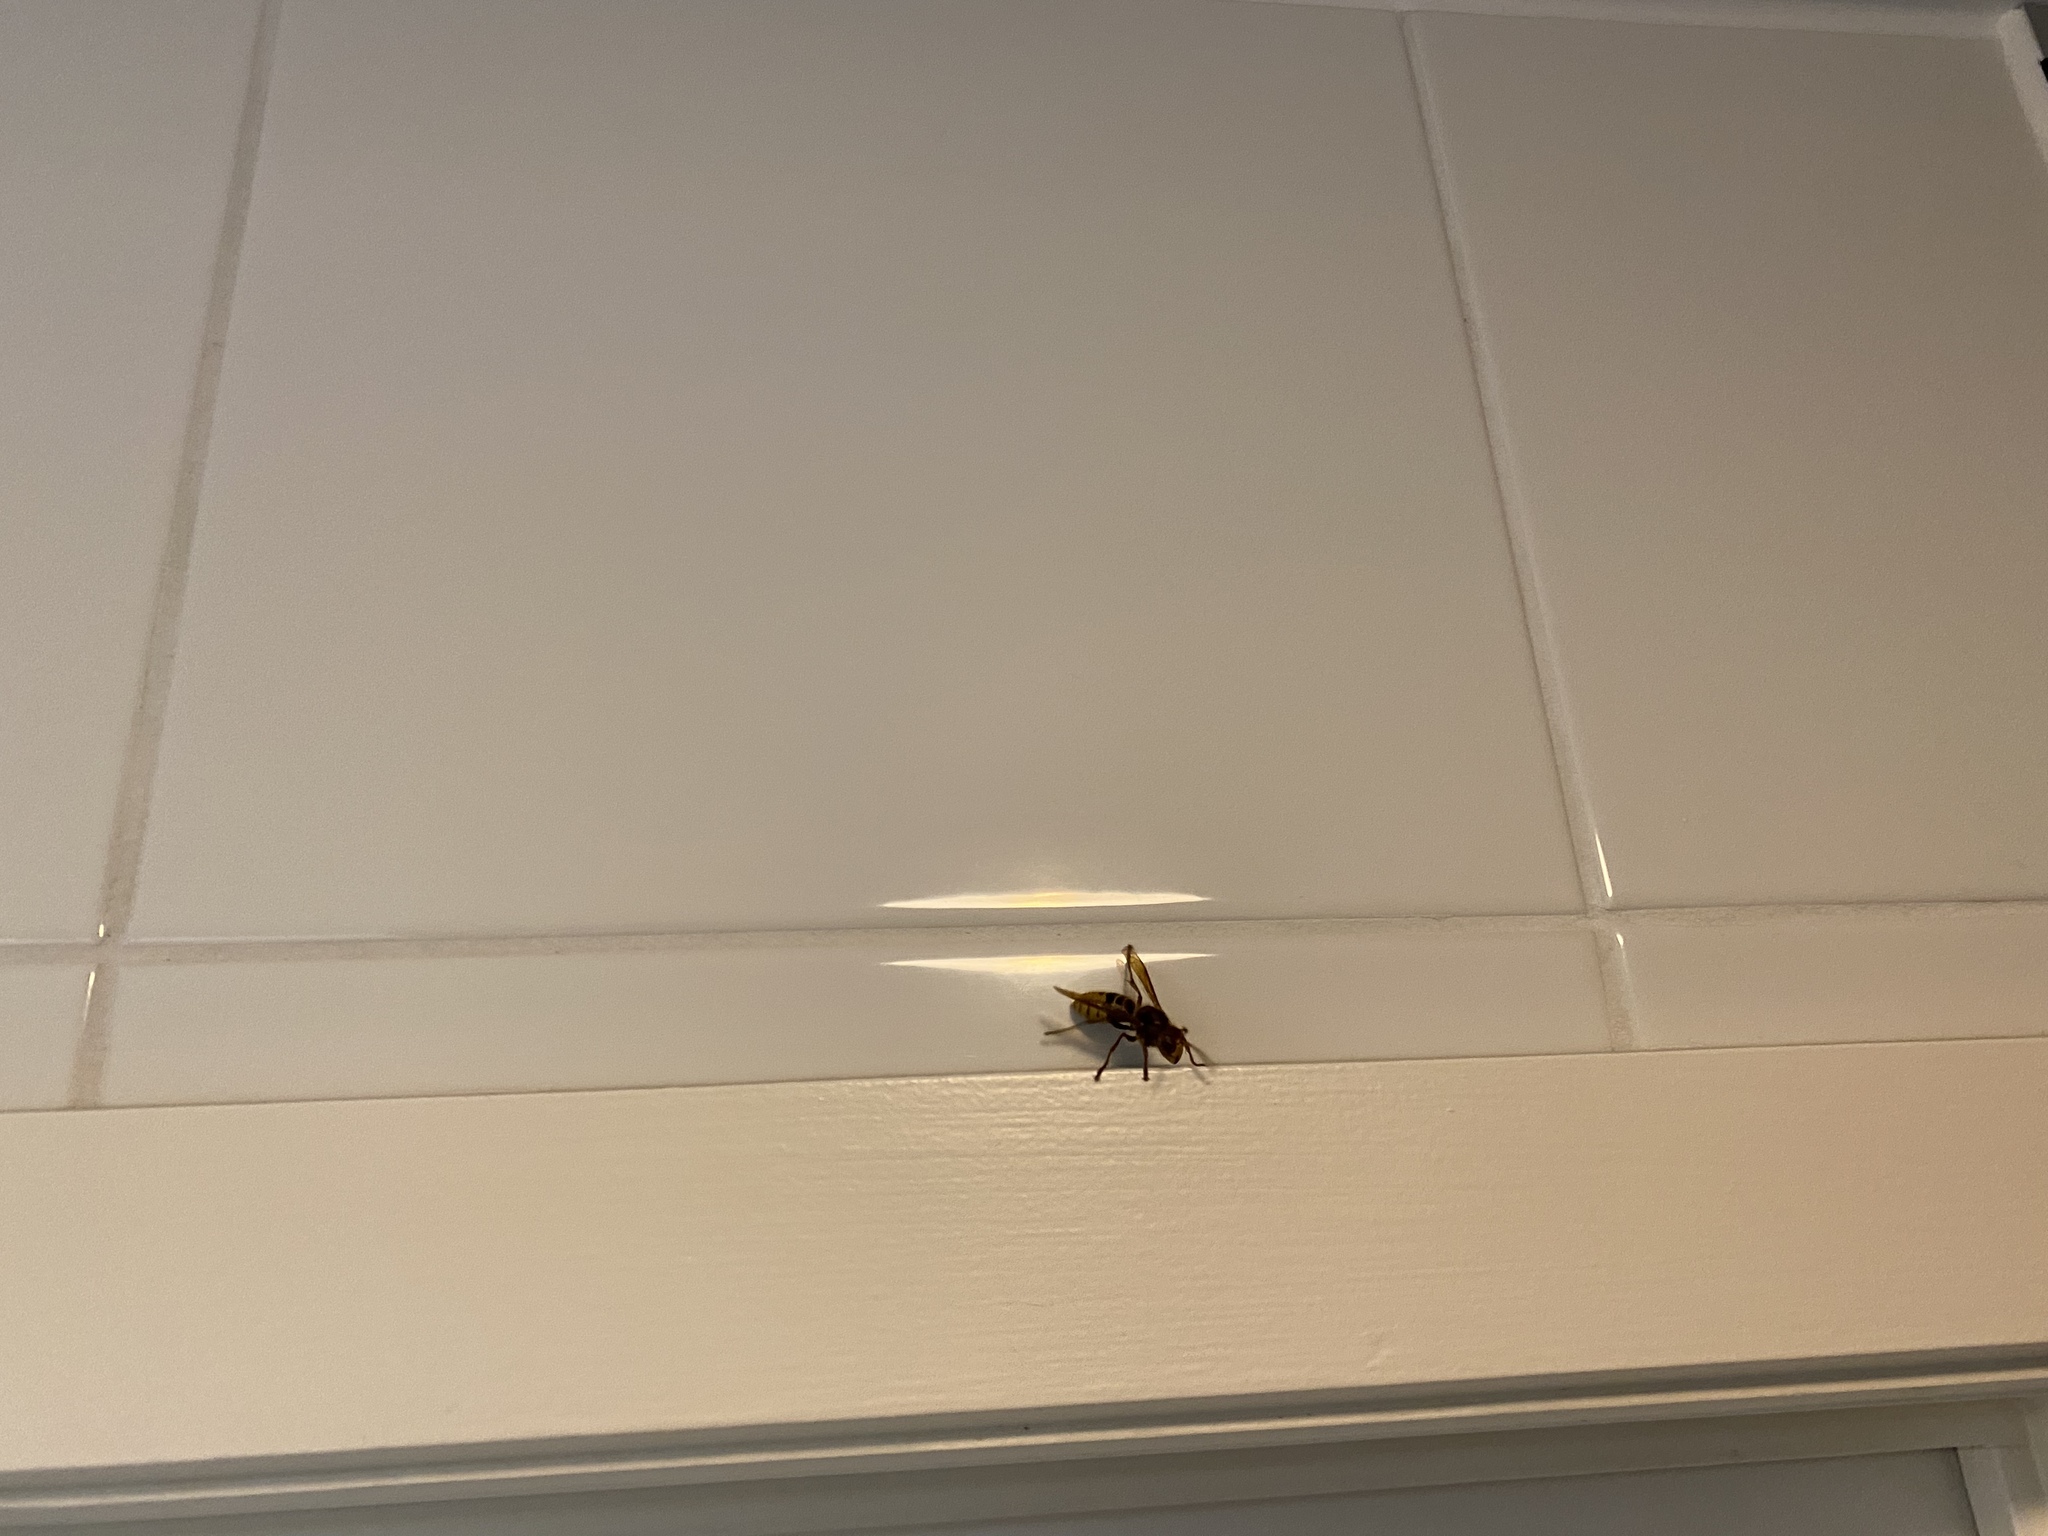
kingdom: Animalia
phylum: Arthropoda
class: Insecta
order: Hymenoptera
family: Vespidae
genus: Vespa
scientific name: Vespa crabro
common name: Hornet
